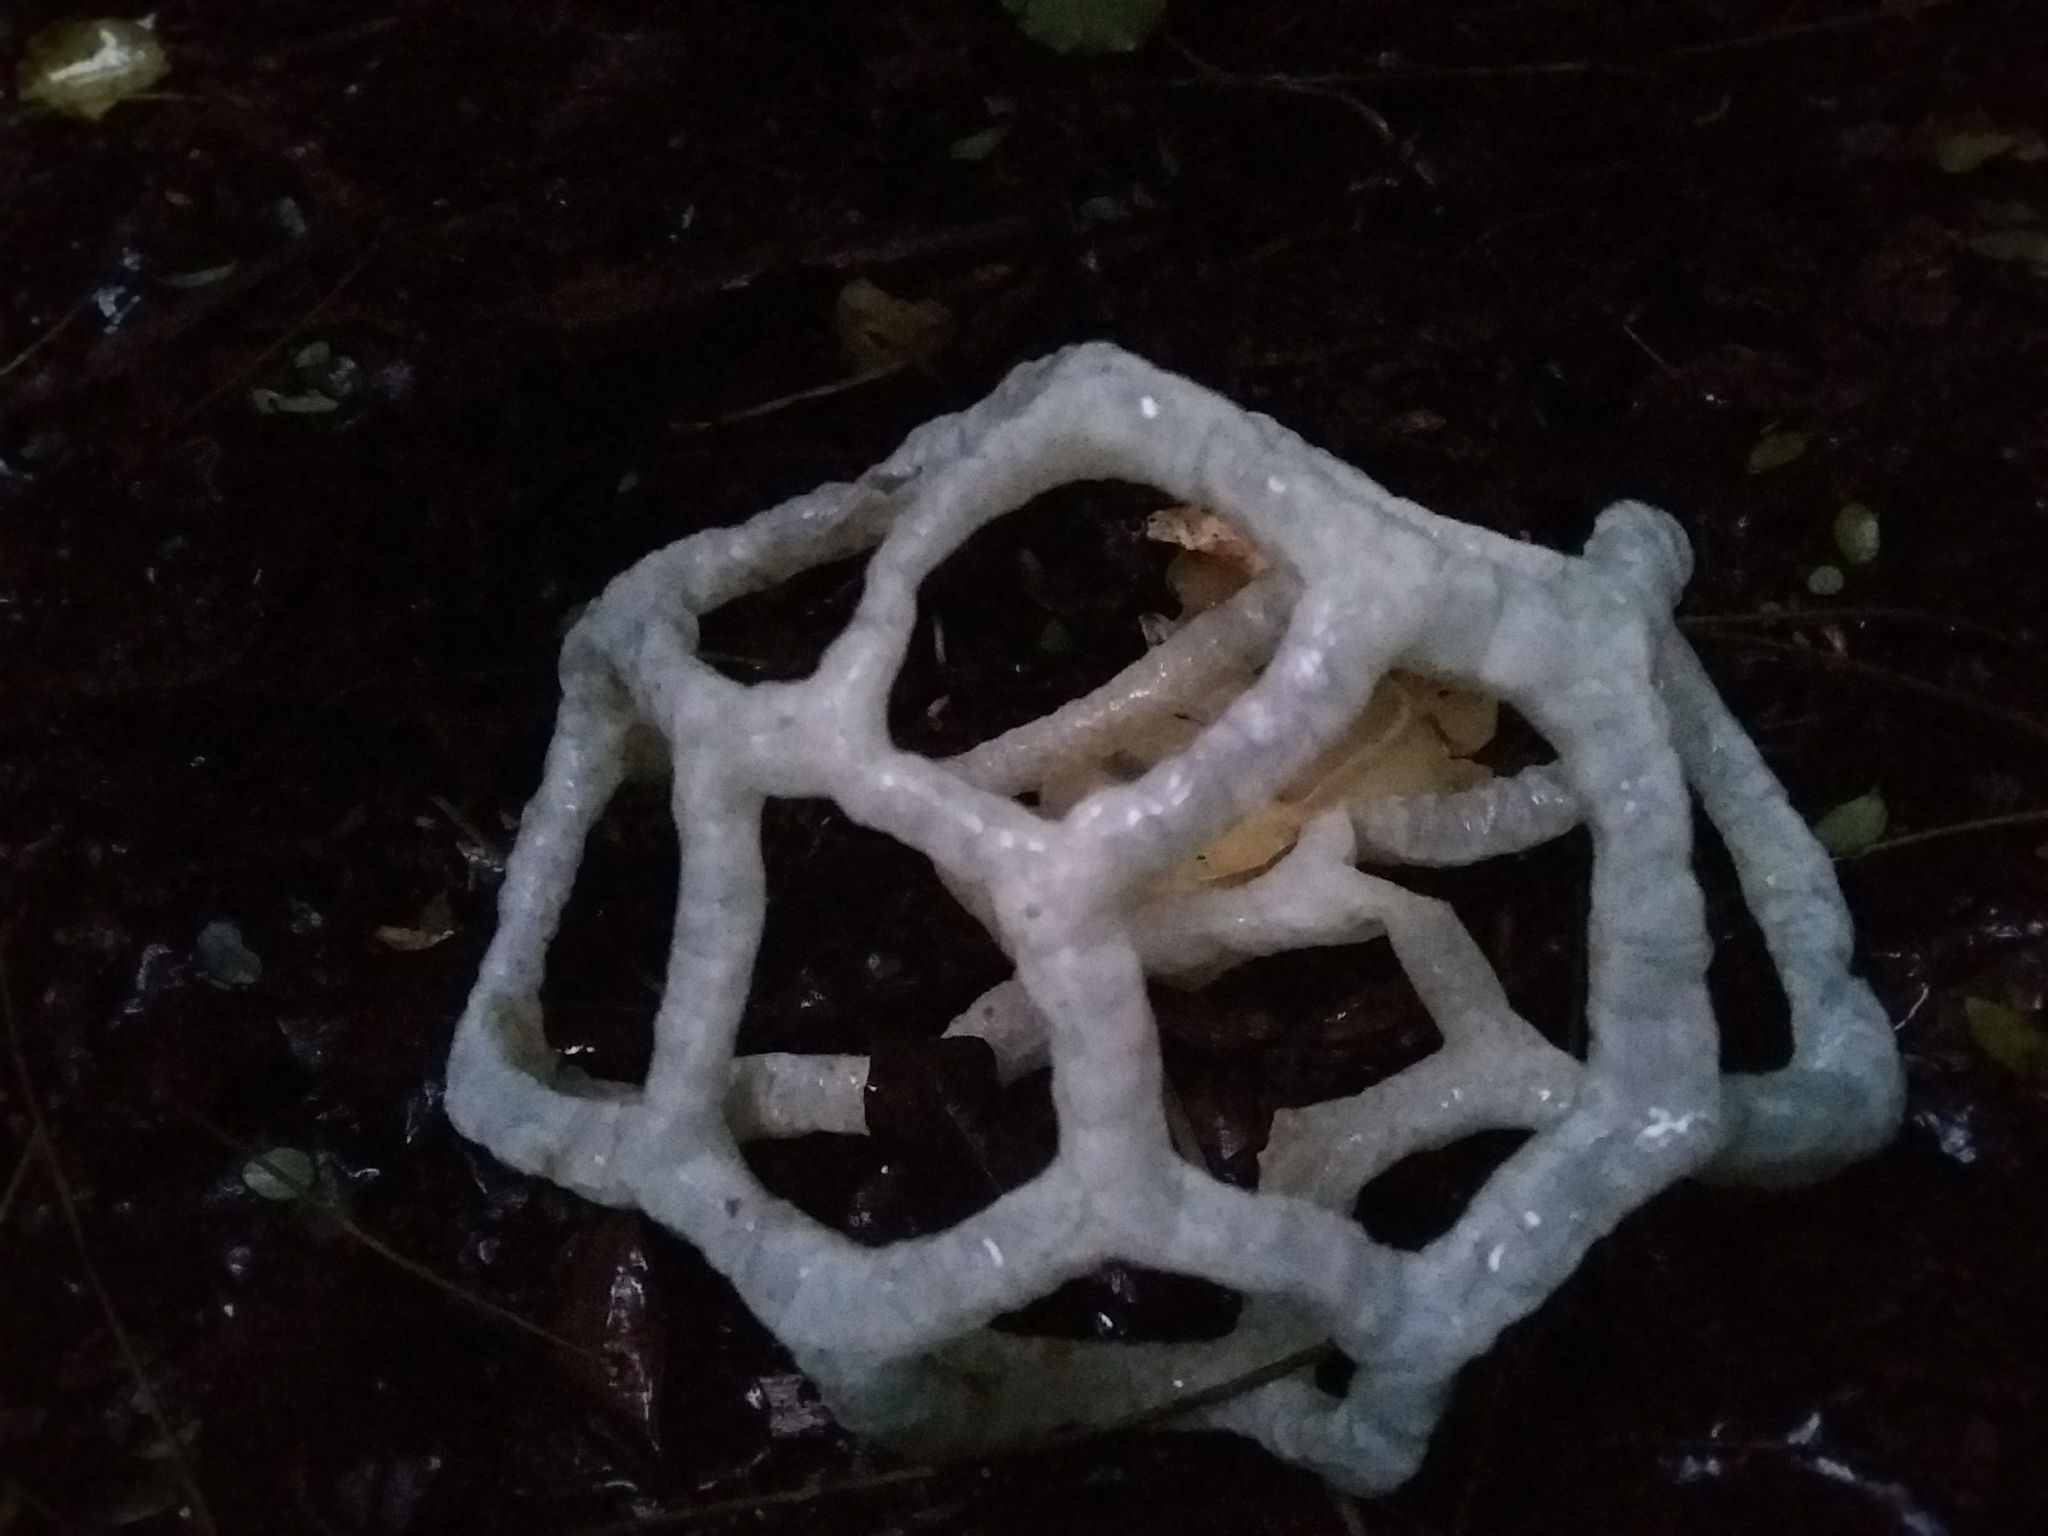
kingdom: Fungi
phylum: Basidiomycota
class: Agaricomycetes
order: Phallales
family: Phallaceae
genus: Ileodictyon
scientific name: Ileodictyon cibarium
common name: Basket fungus
